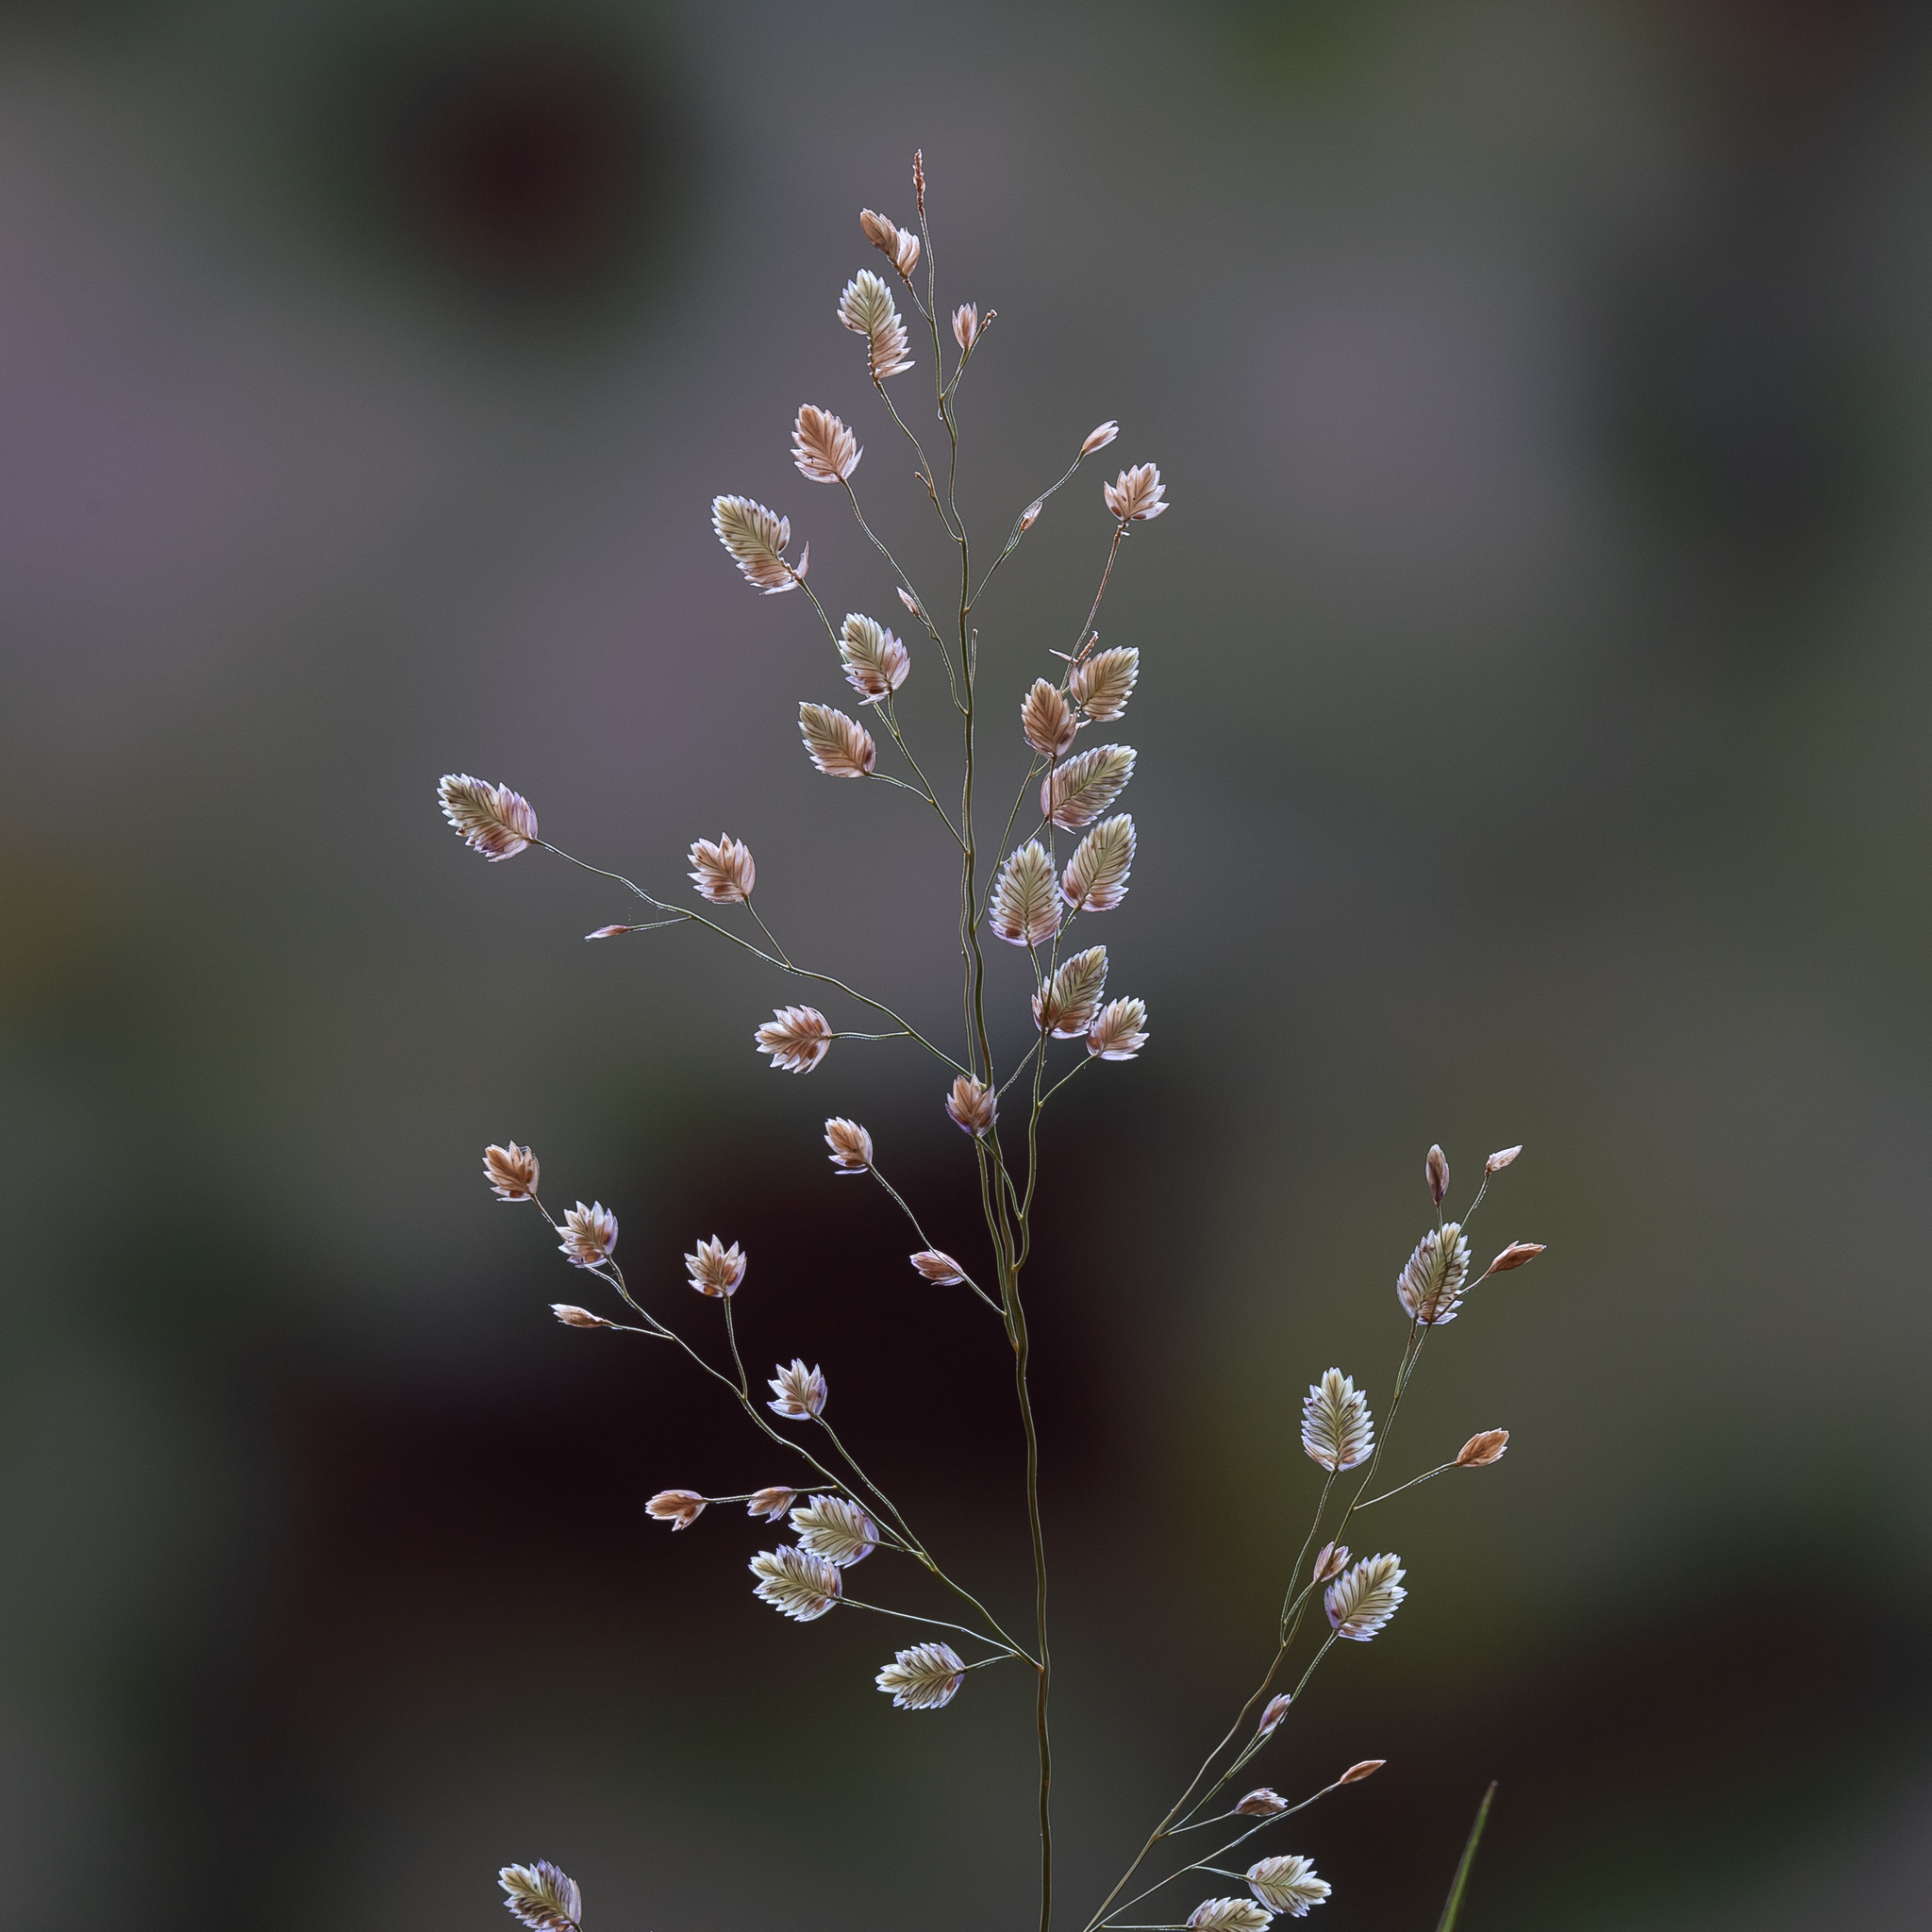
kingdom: Plantae
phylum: Tracheophyta
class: Liliopsida
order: Poales
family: Poaceae
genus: Eragrostis
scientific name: Eragrostis unioloides
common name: Chinese lovegrass
